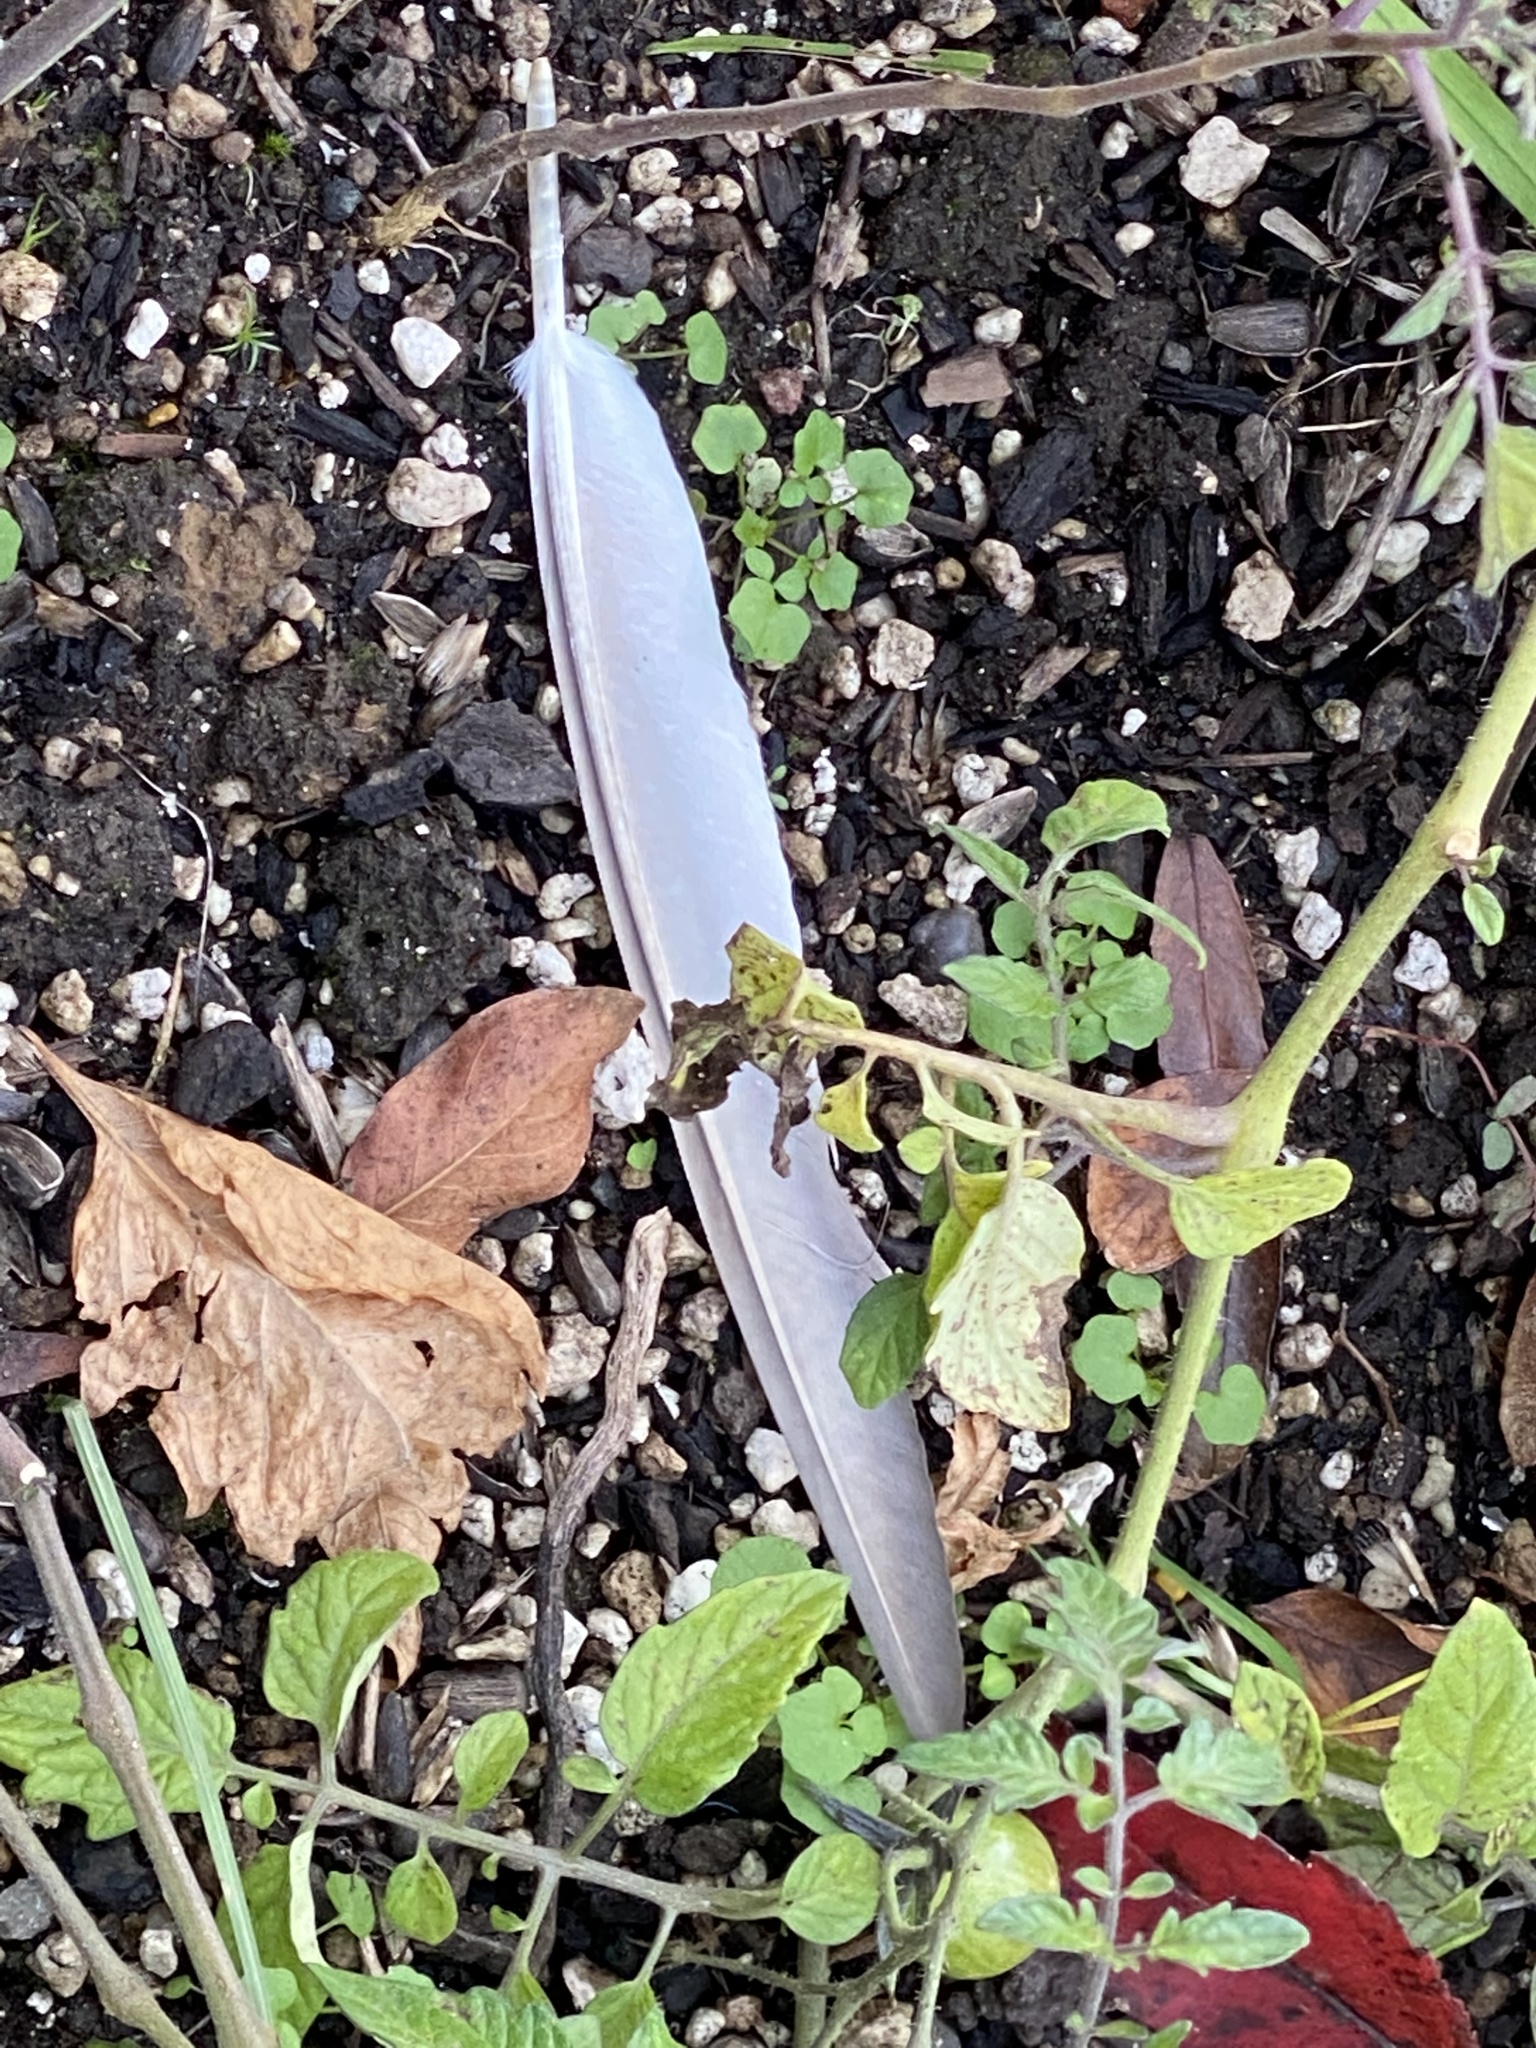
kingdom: Animalia
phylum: Chordata
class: Aves
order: Columbiformes
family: Columbidae
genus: Columba
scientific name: Columba livia
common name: Rock pigeon
